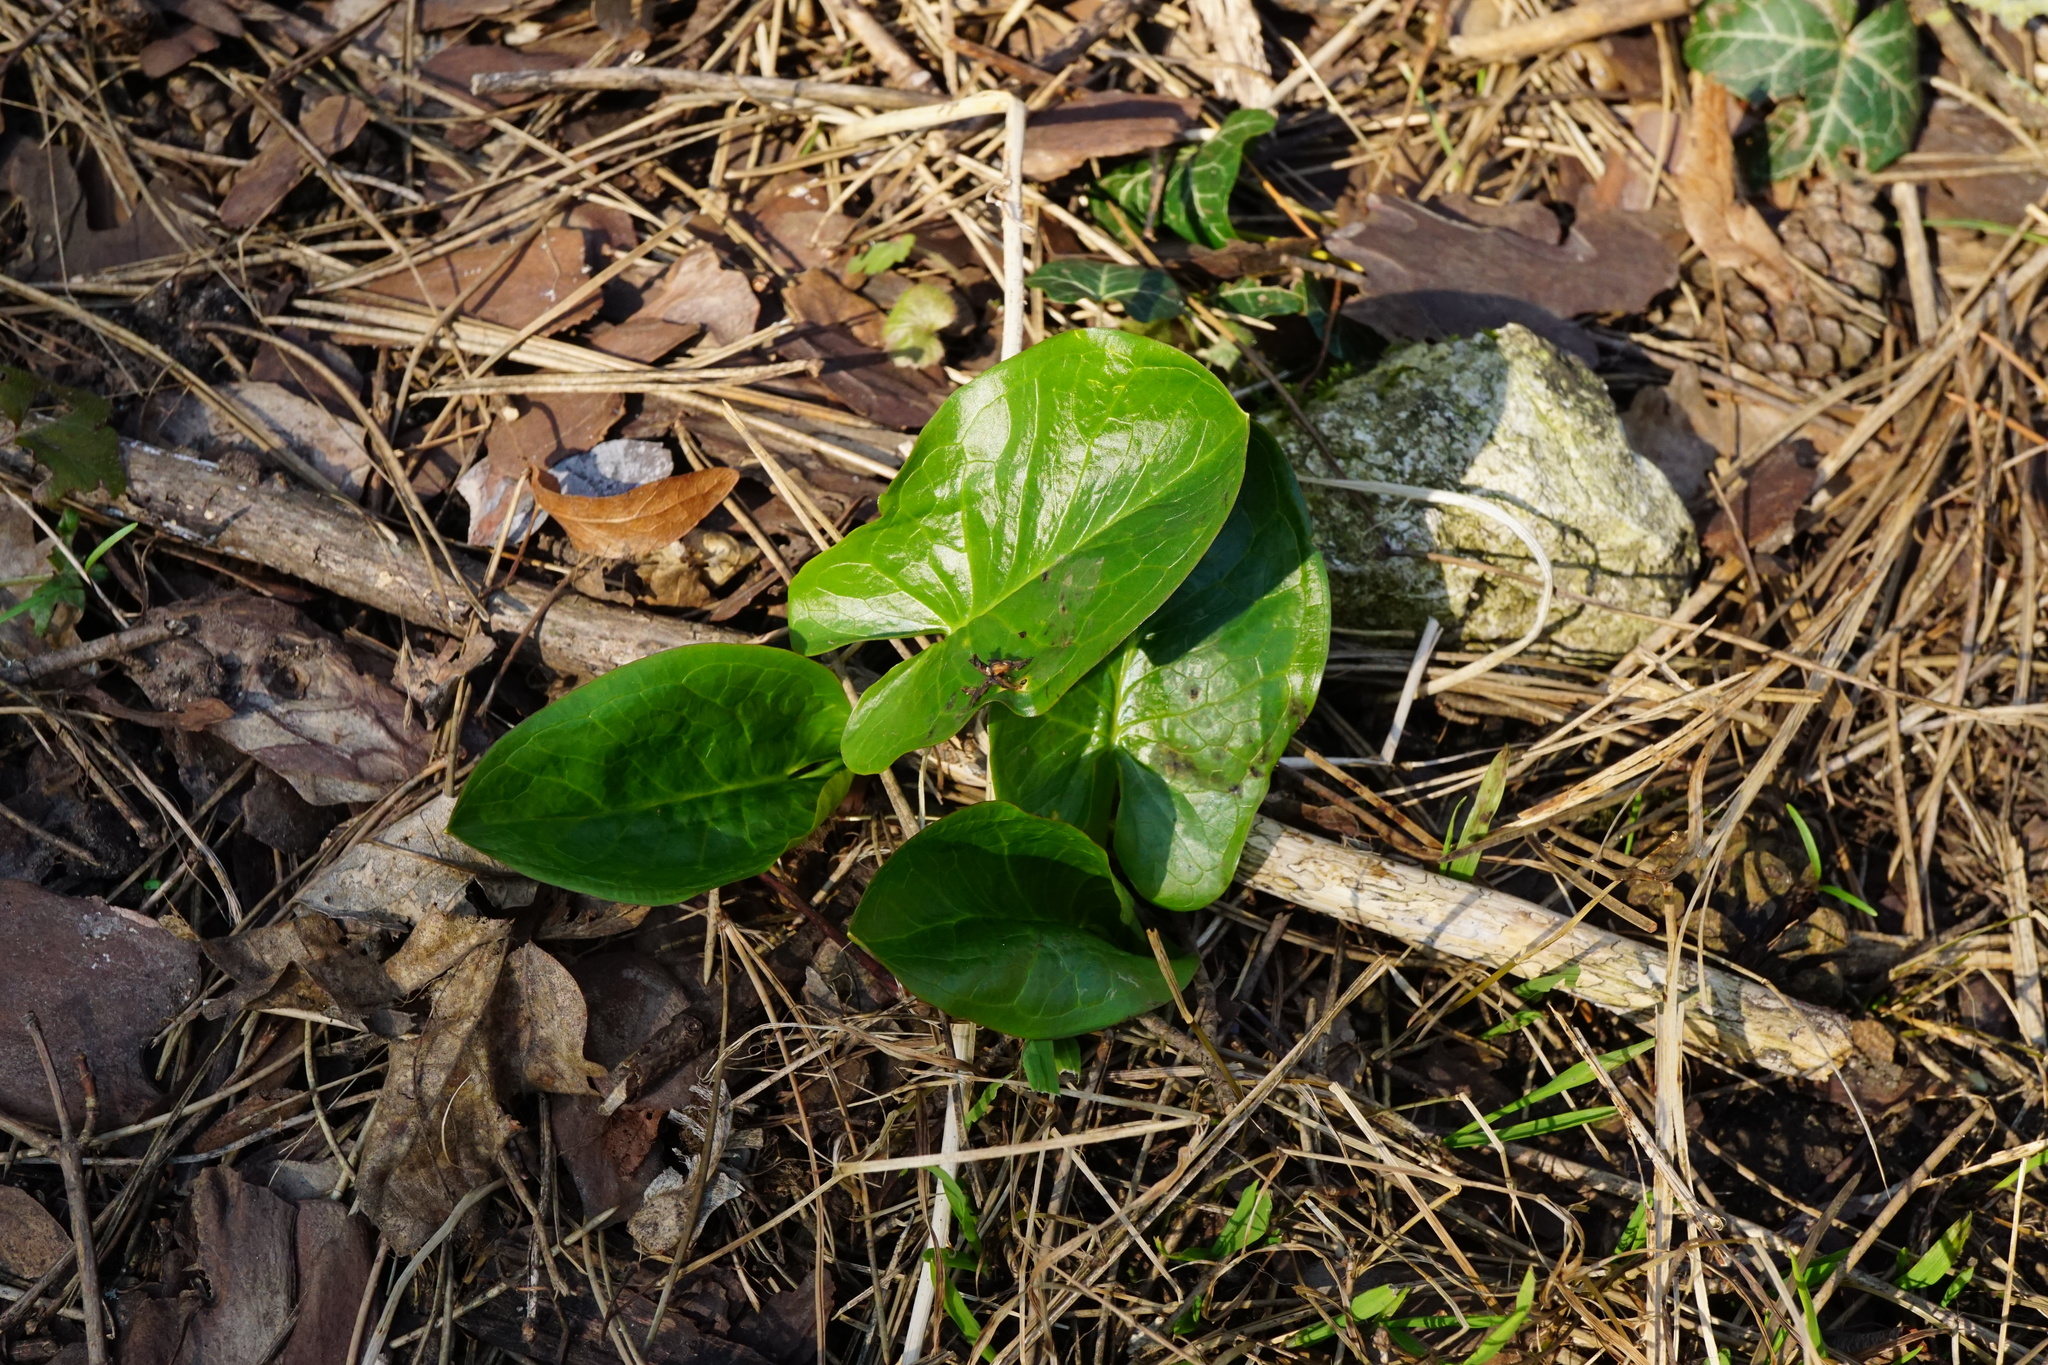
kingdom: Plantae
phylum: Tracheophyta
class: Liliopsida
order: Alismatales
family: Araceae
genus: Arum
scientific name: Arum cylindraceum
